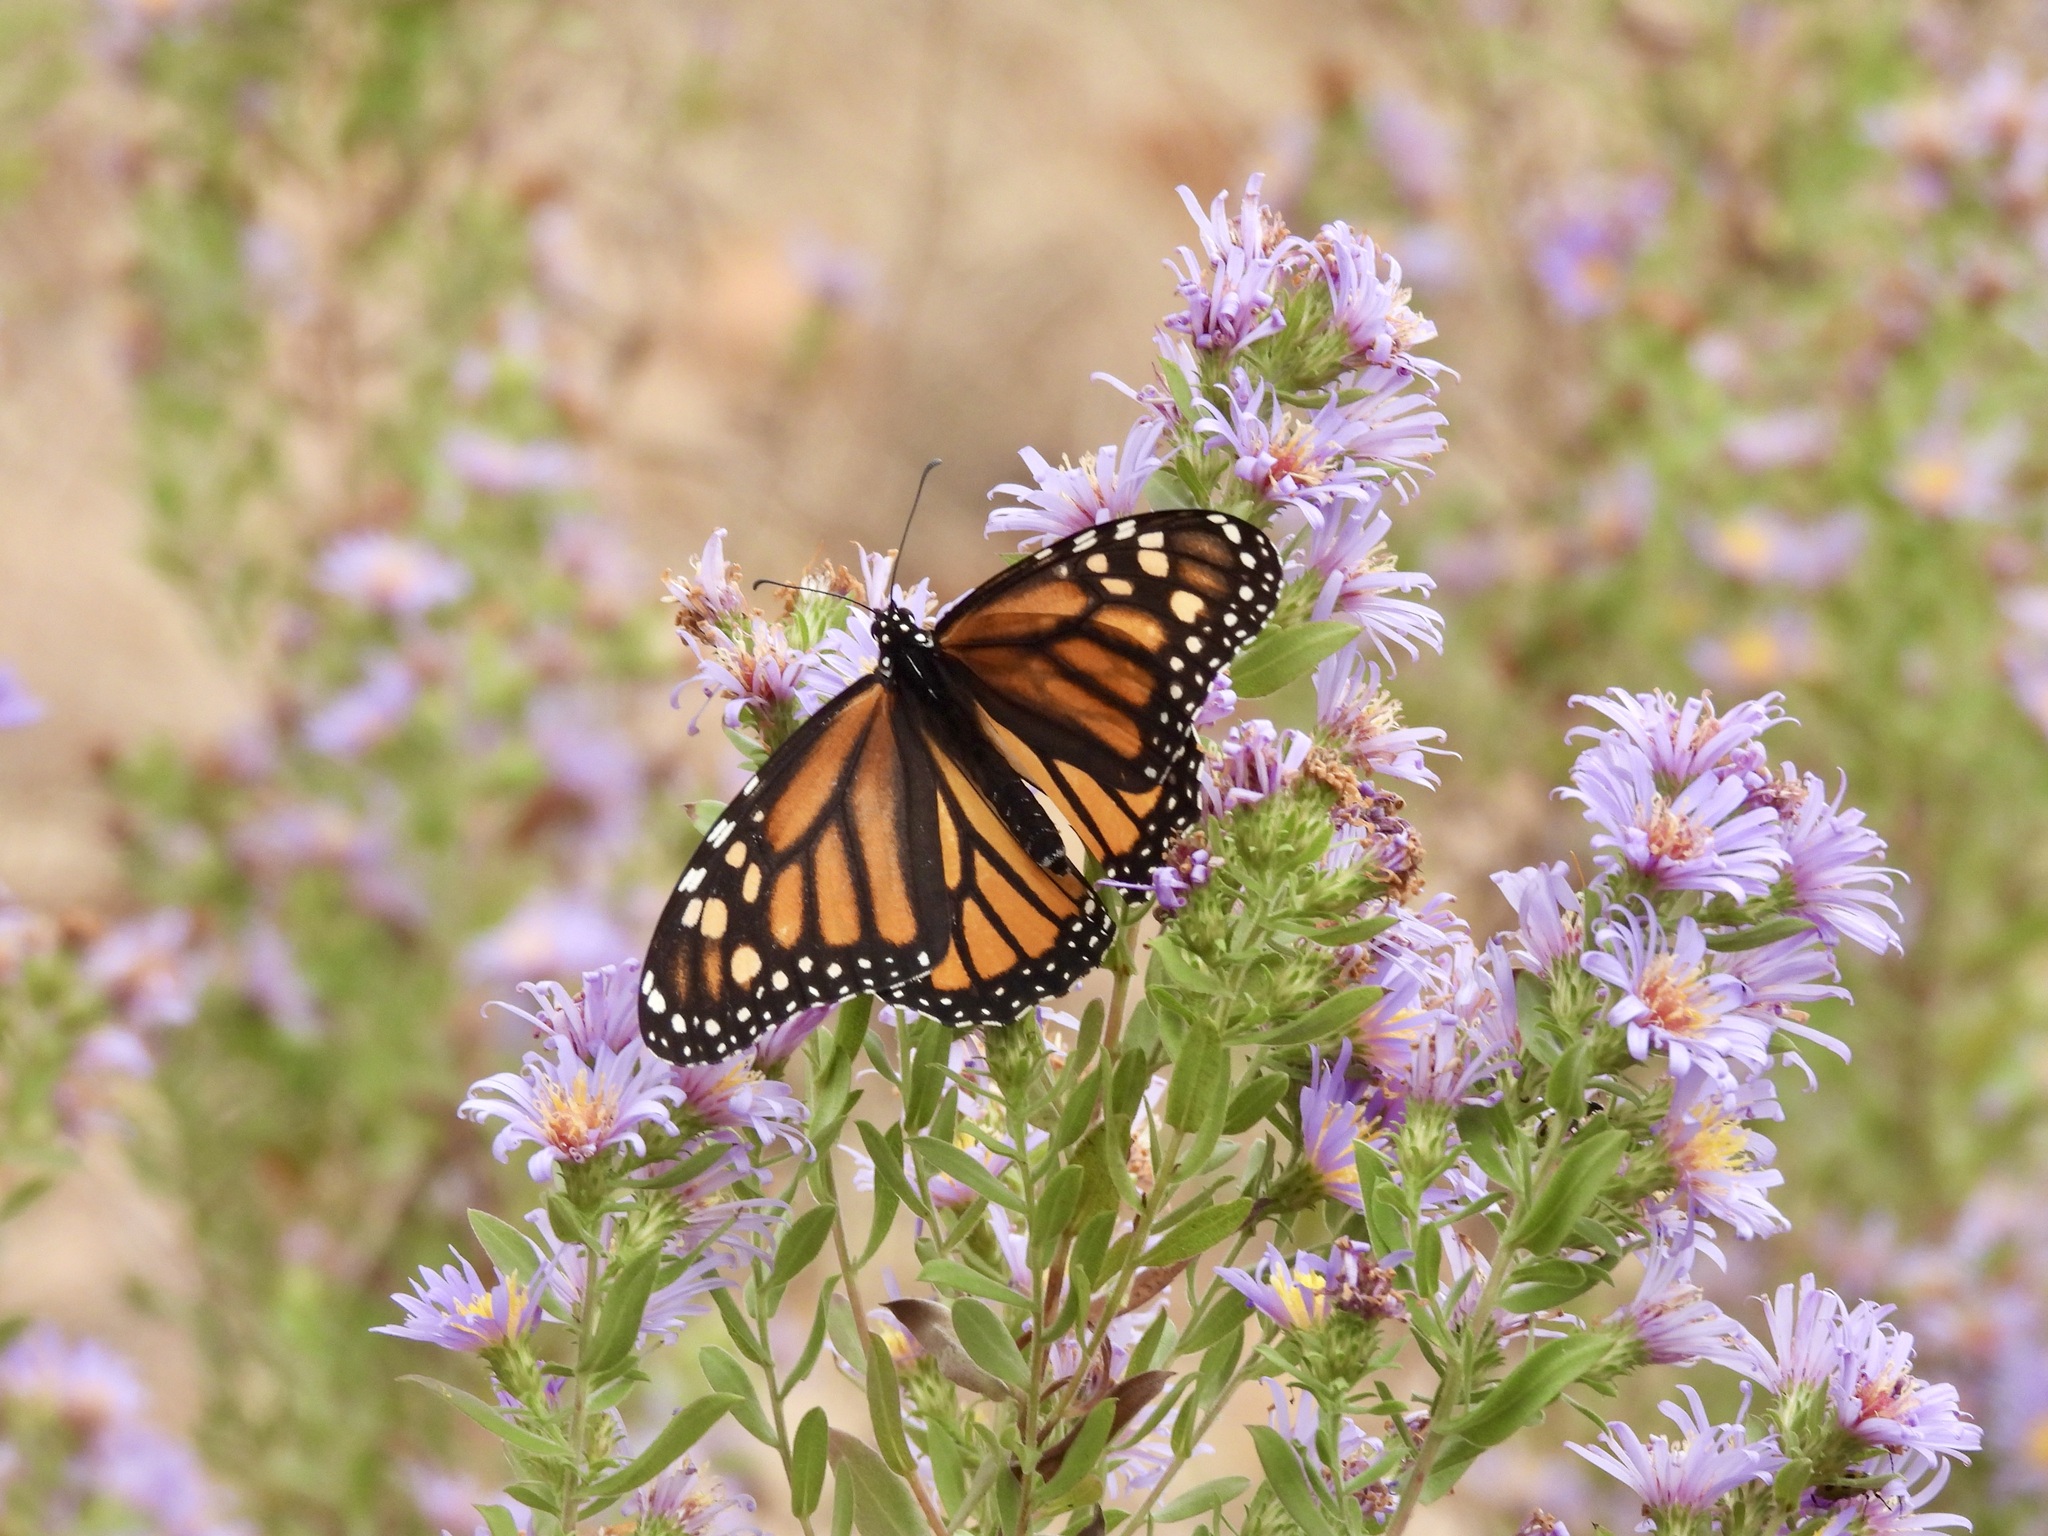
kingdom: Animalia
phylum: Arthropoda
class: Insecta
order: Lepidoptera
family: Nymphalidae
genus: Danaus
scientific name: Danaus plexippus
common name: Monarch
